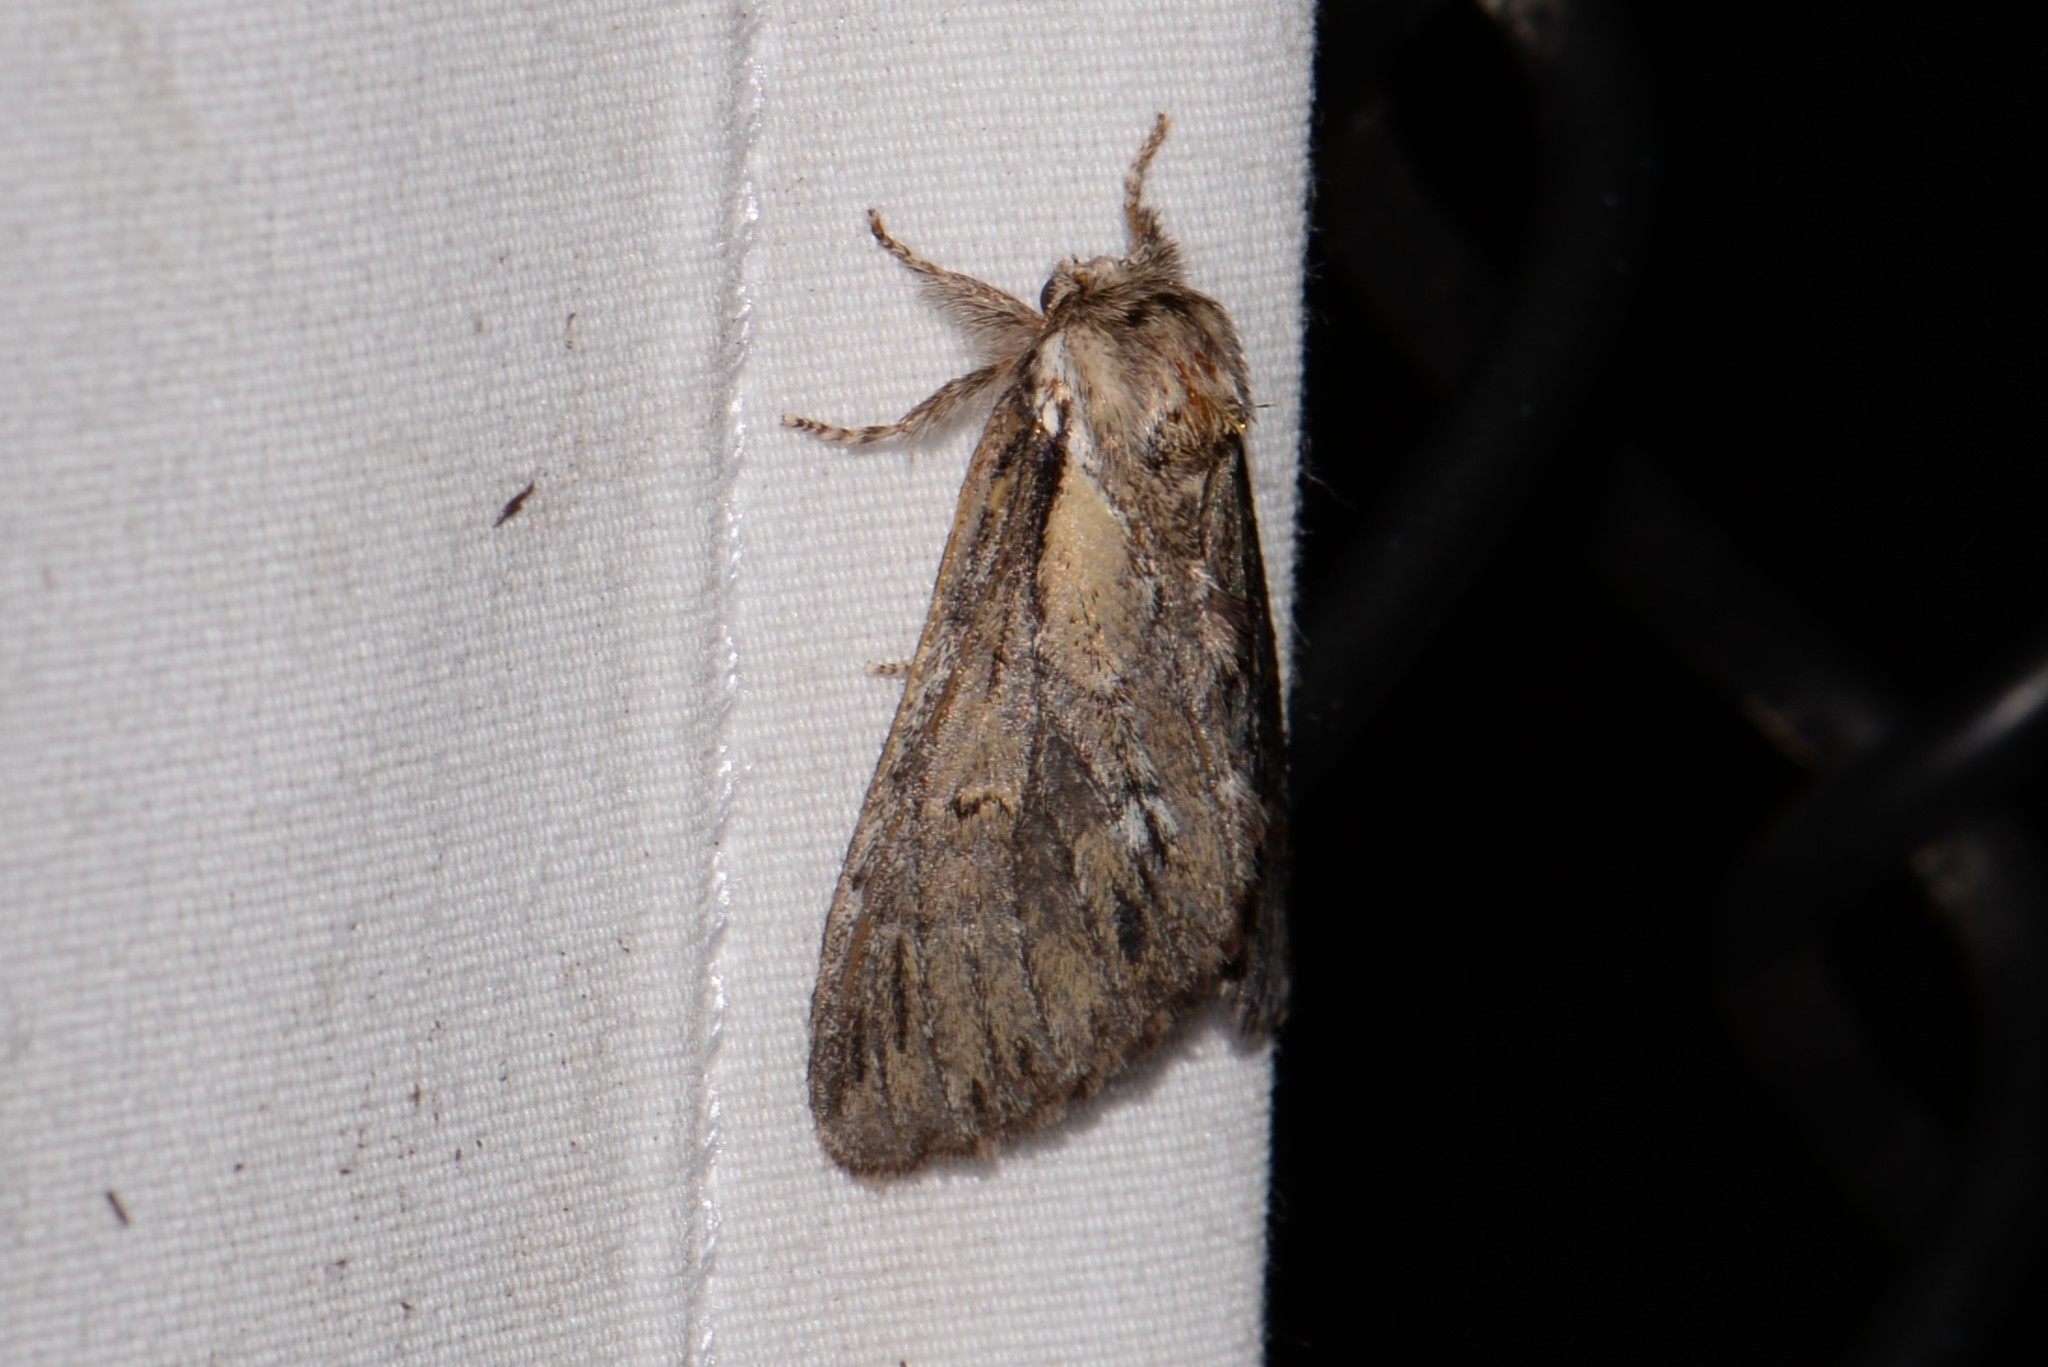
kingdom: Animalia
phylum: Arthropoda
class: Insecta
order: Lepidoptera
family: Notodontidae
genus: Paraeschra
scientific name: Paraeschra georgica
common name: Georgian prominent
